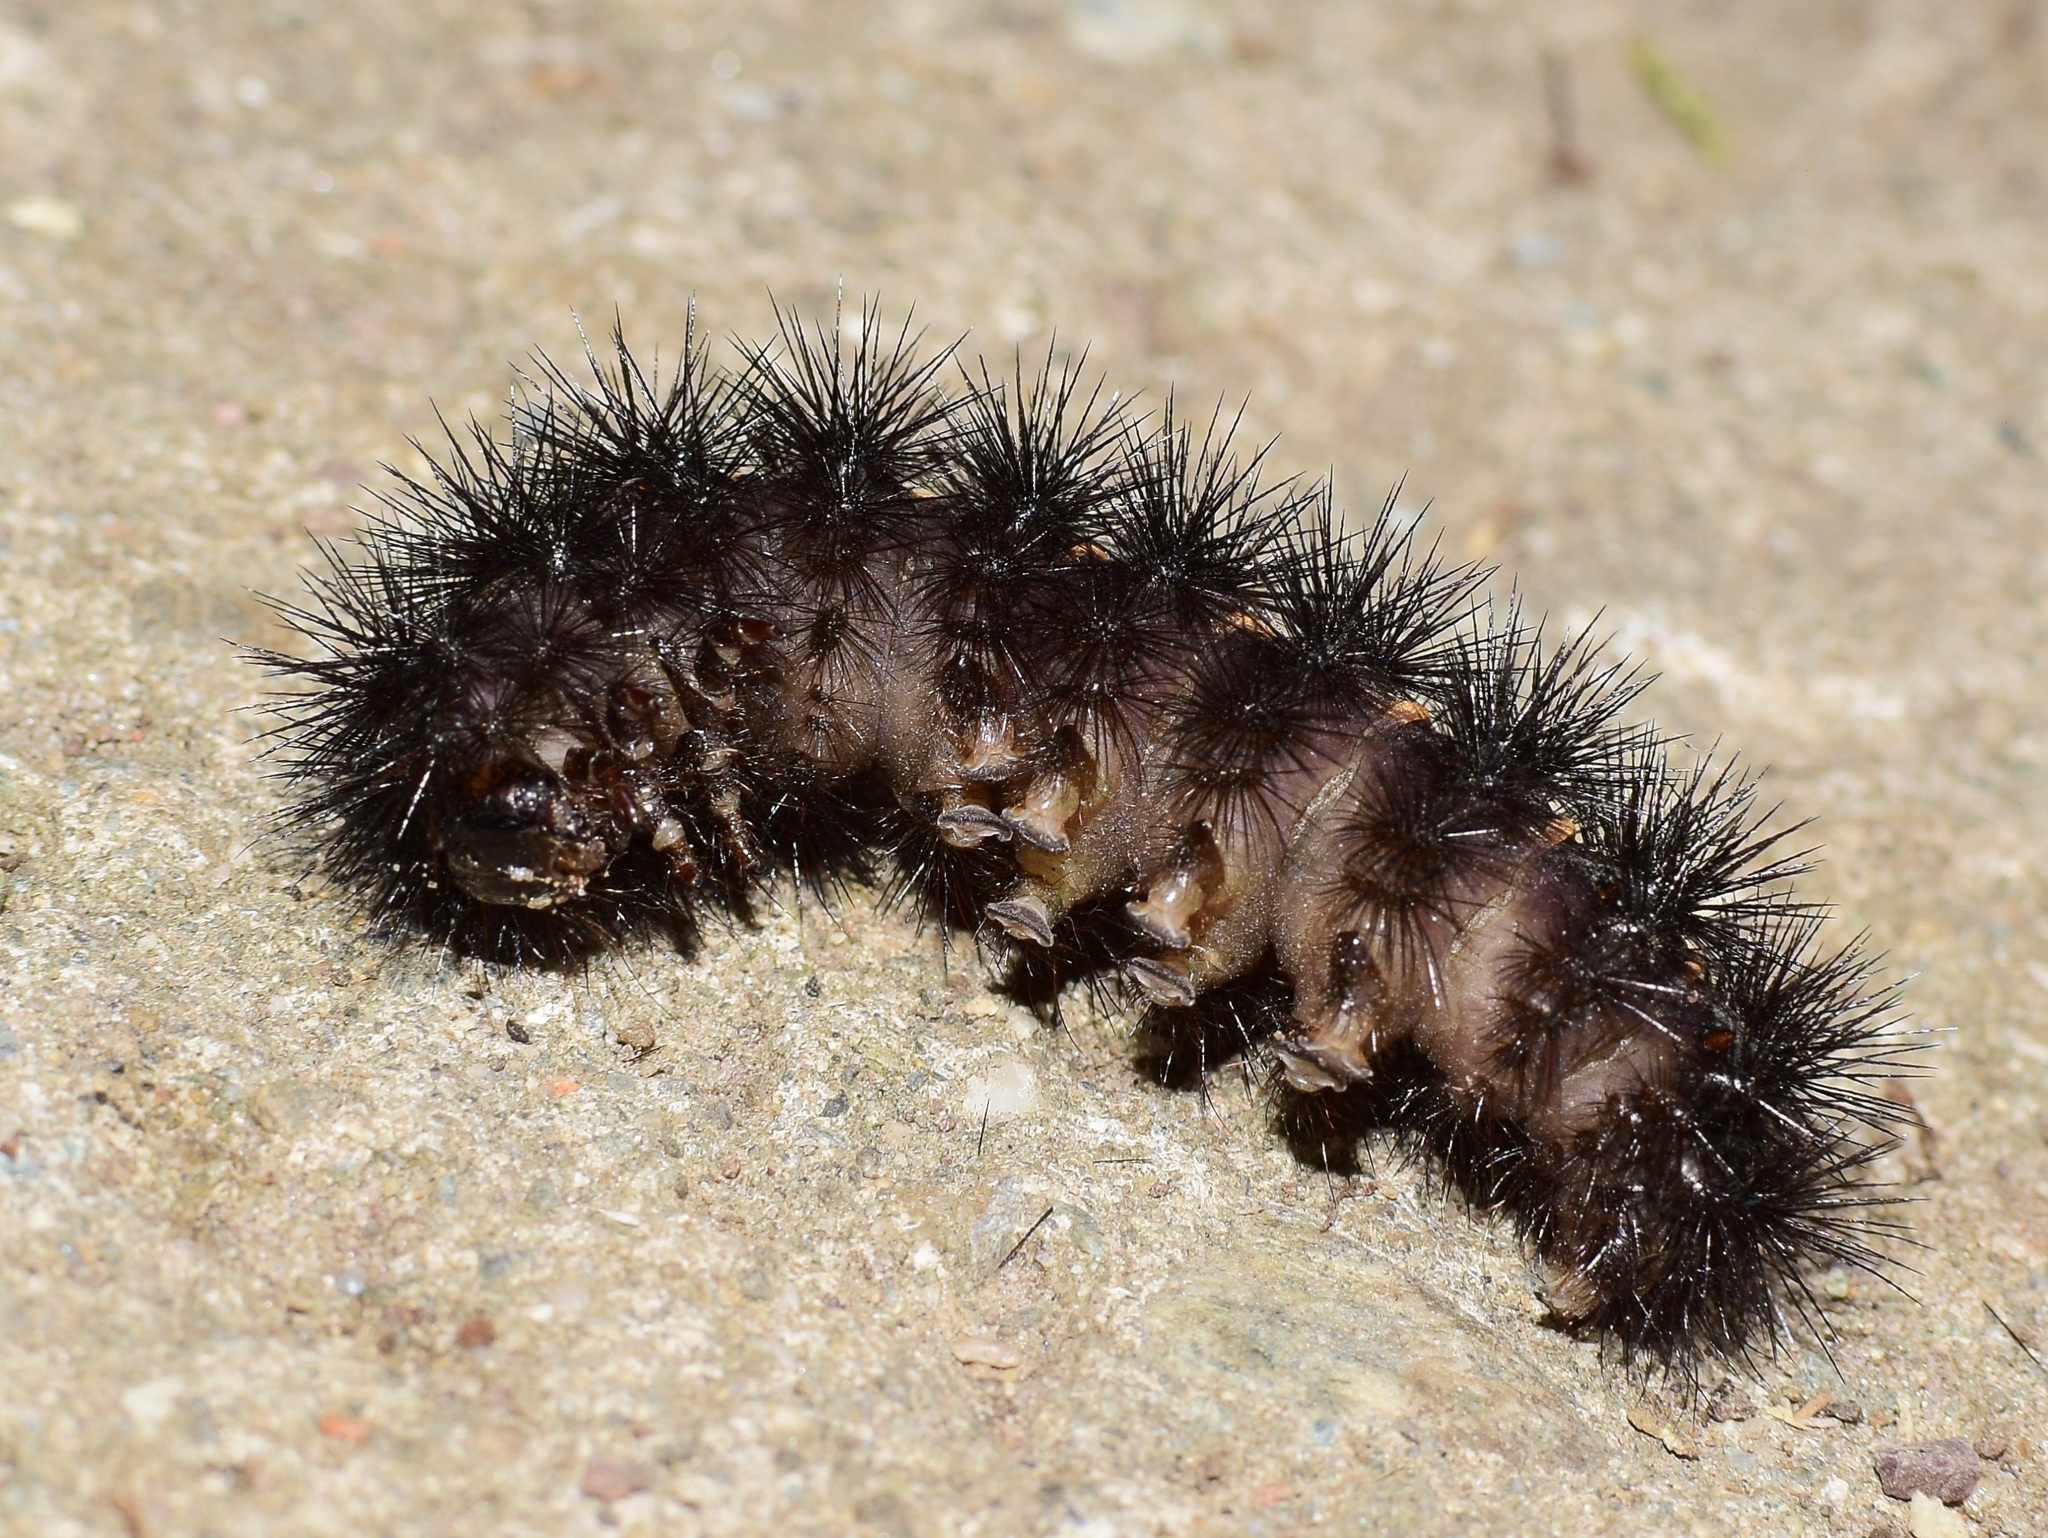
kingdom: Animalia
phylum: Arthropoda
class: Insecta
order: Lepidoptera
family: Erebidae
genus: Hypercompe
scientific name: Hypercompe scribonia
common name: Giant leopard moth
